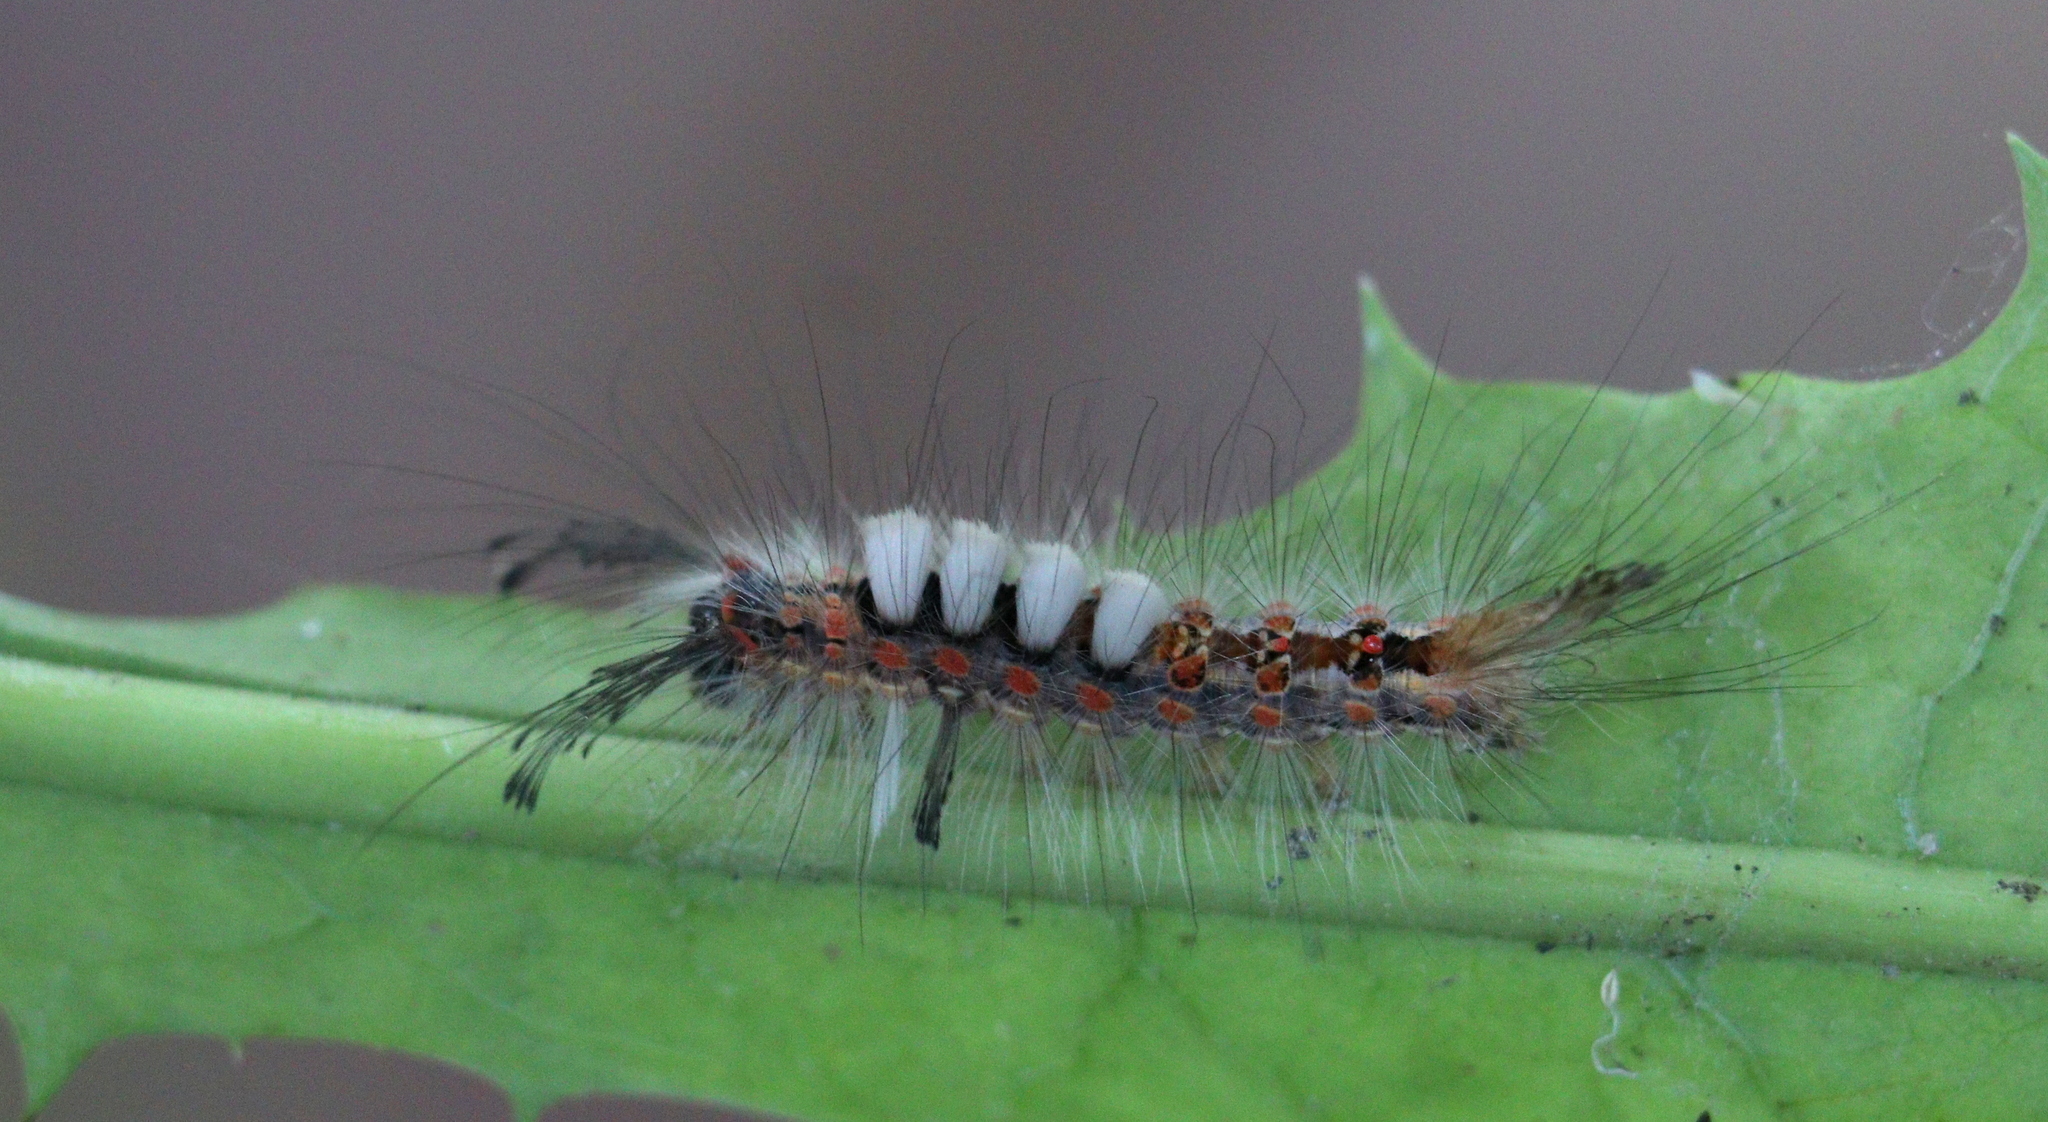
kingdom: Animalia
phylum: Arthropoda
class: Insecta
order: Lepidoptera
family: Erebidae
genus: Orgyia
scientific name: Orgyia antiqua
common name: Vapourer
